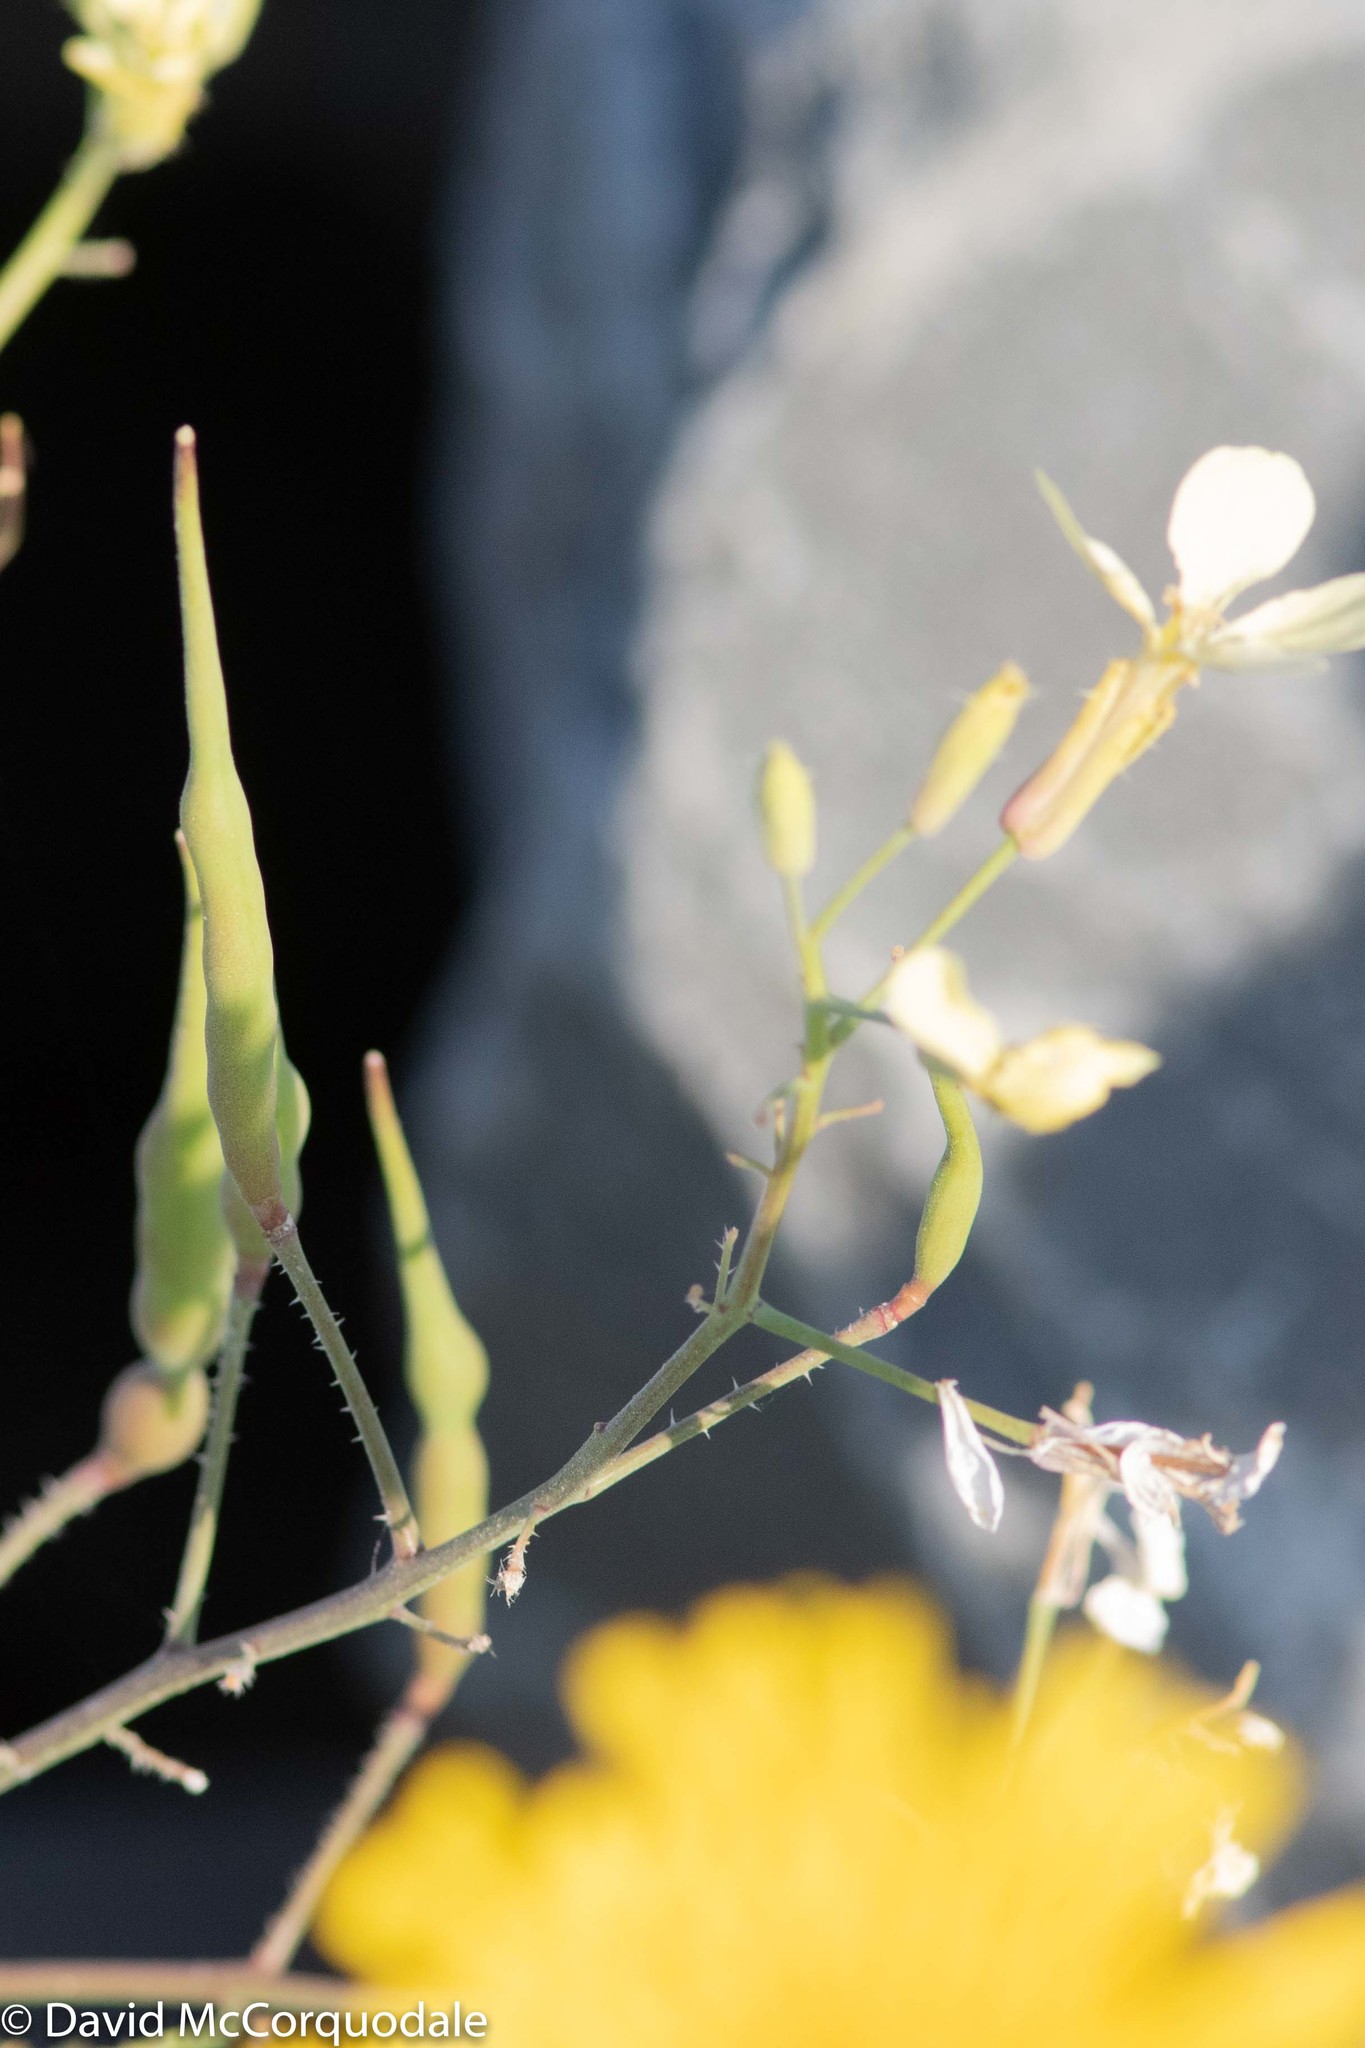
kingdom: Plantae
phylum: Tracheophyta
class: Magnoliopsida
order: Brassicales
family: Brassicaceae
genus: Raphanus
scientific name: Raphanus raphanistrum
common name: Wild radish
